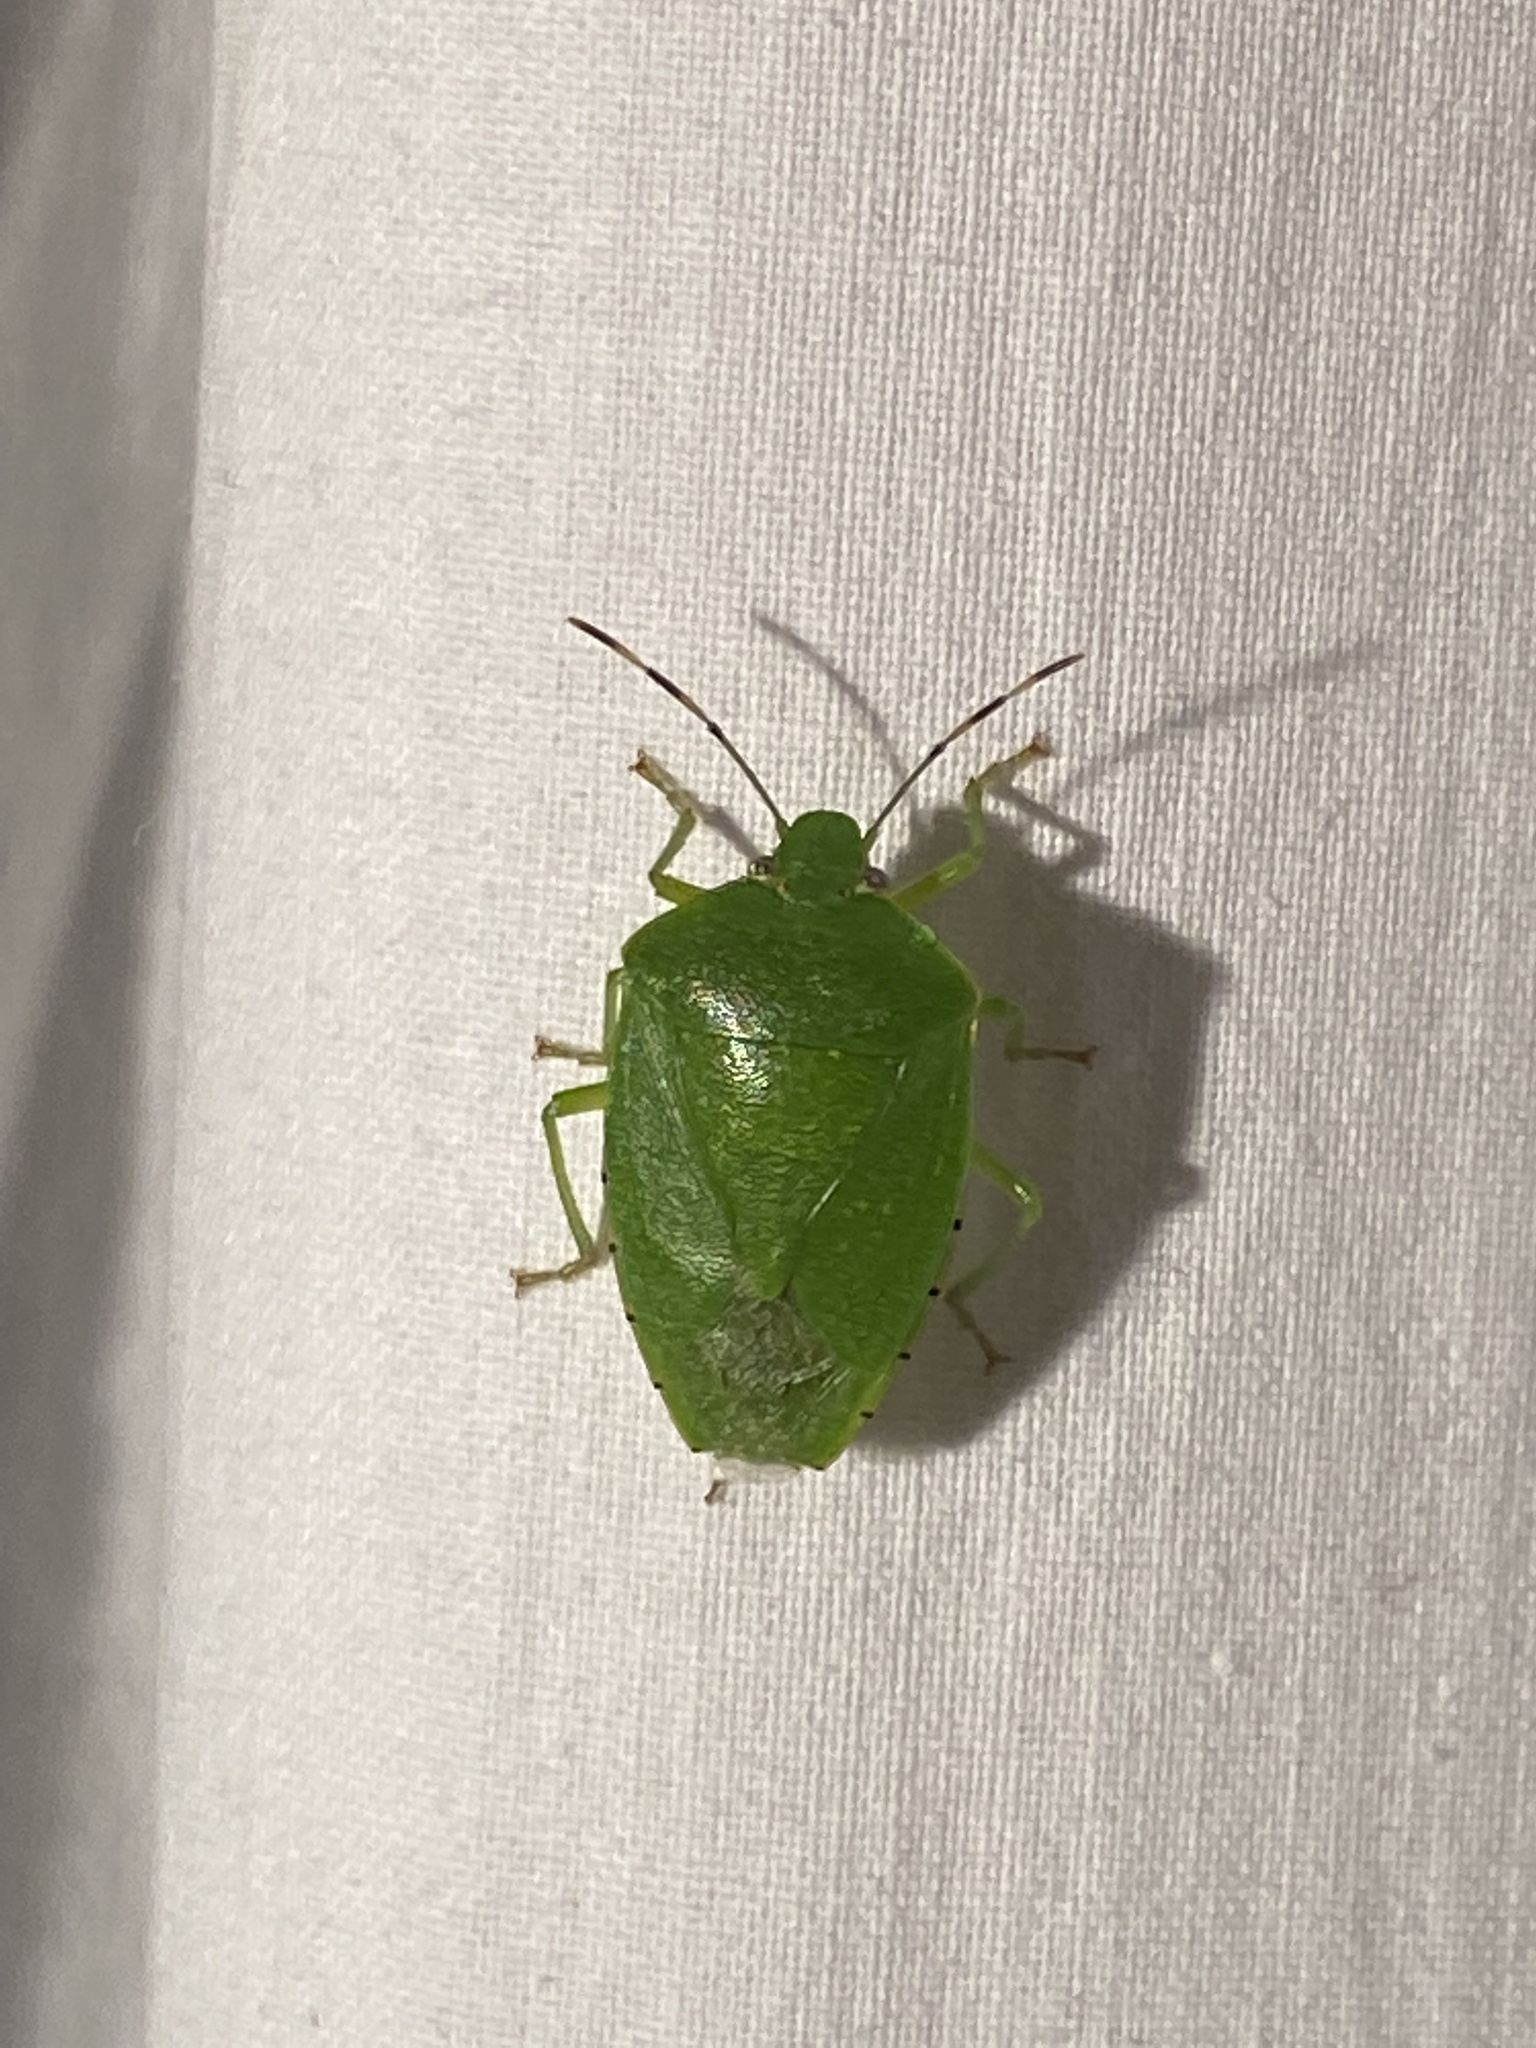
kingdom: Animalia
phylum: Arthropoda
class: Insecta
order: Hemiptera
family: Pentatomidae
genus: Chinavia
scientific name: Chinavia hilaris
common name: Green stink bug
